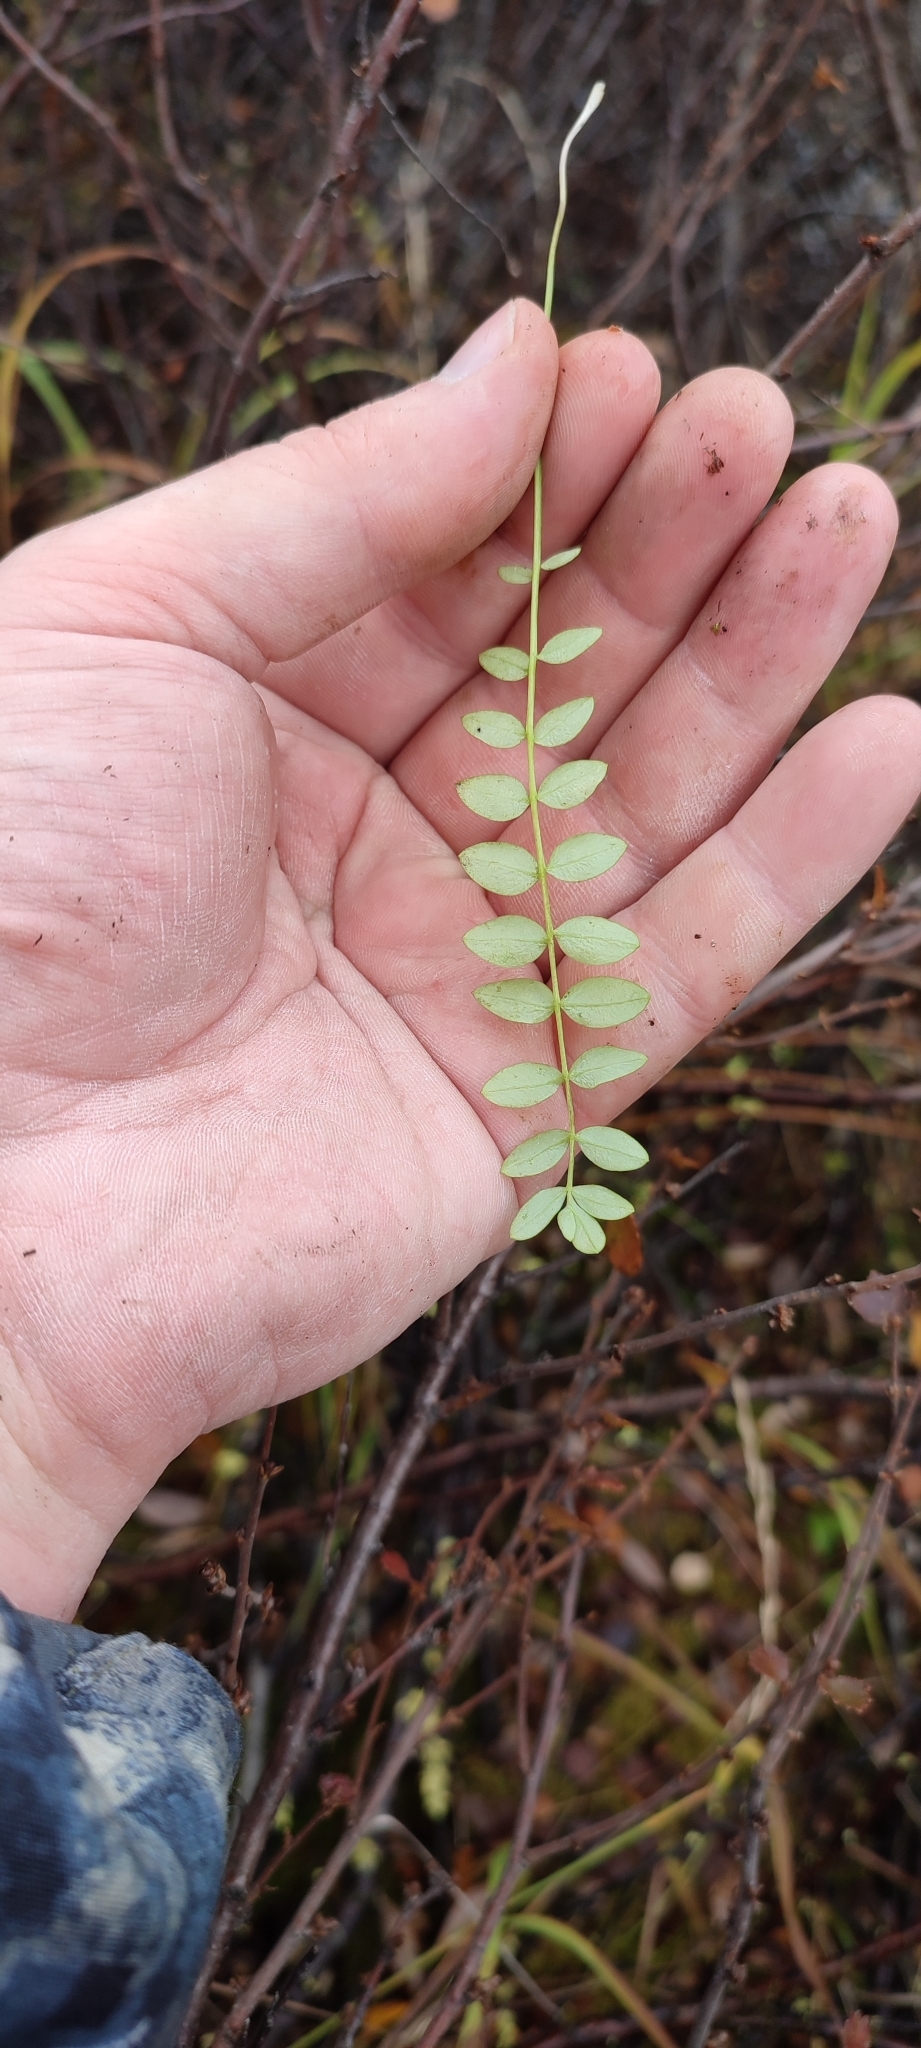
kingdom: Plantae
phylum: Tracheophyta
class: Magnoliopsida
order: Ericales
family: Polemoniaceae
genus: Polemonium
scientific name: Polemonium acutiflorum
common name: Tall jacob's-ladder
